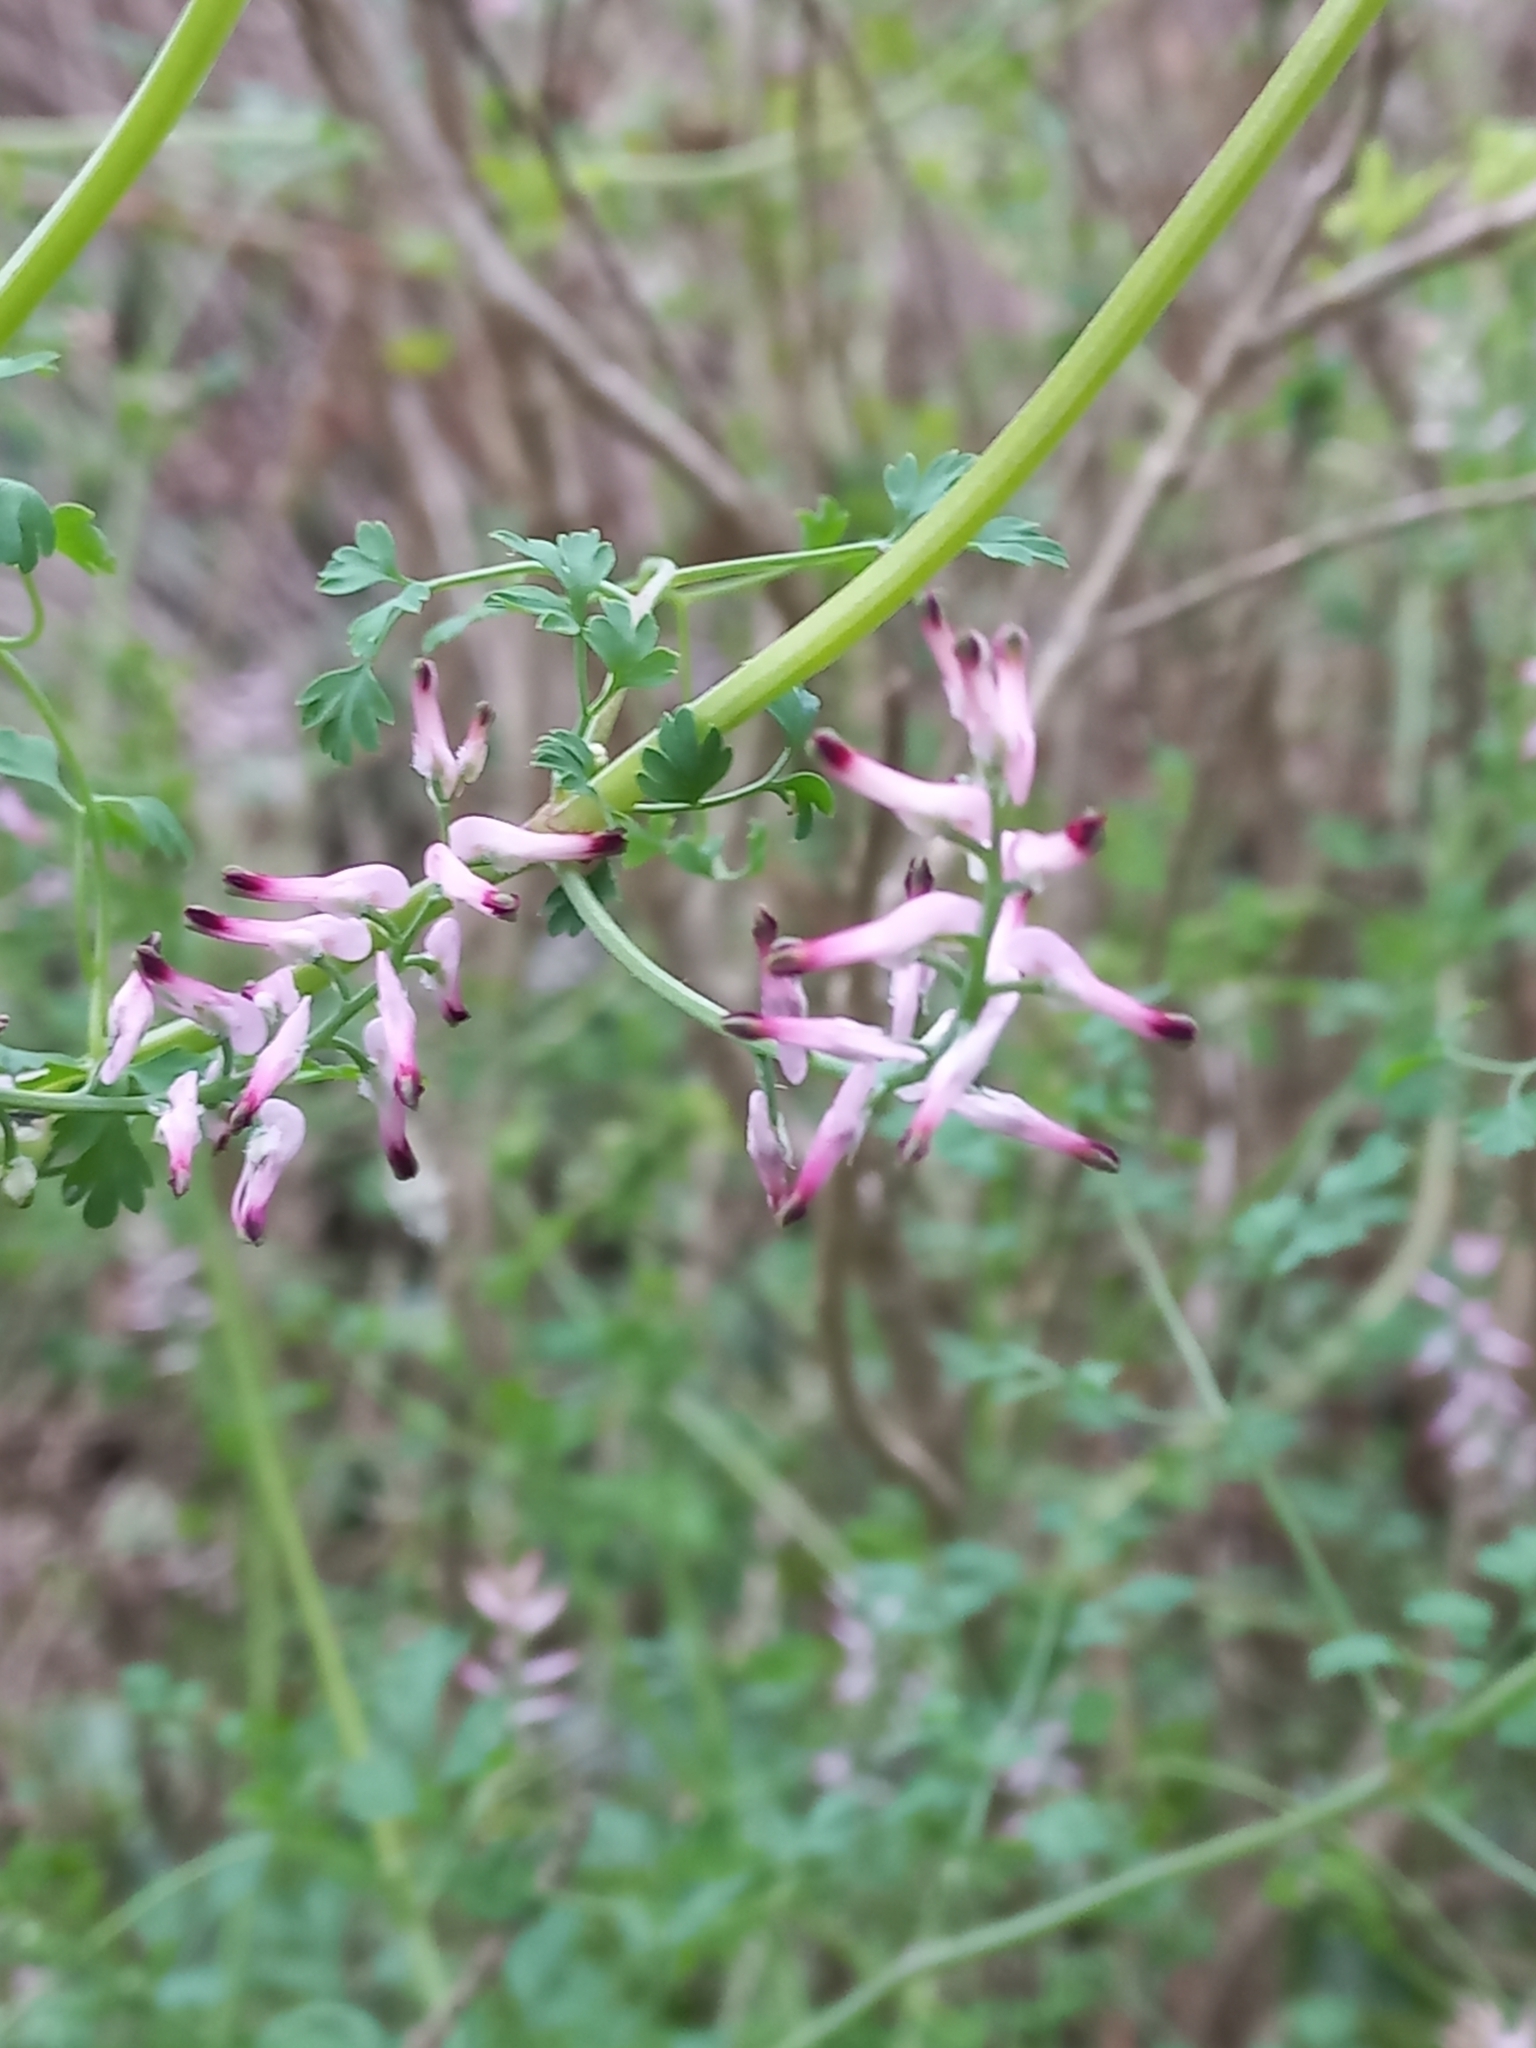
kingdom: Plantae
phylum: Tracheophyta
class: Magnoliopsida
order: Ranunculales
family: Papaveraceae
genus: Fumaria
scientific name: Fumaria muralis
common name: Common ramping-fumitory
